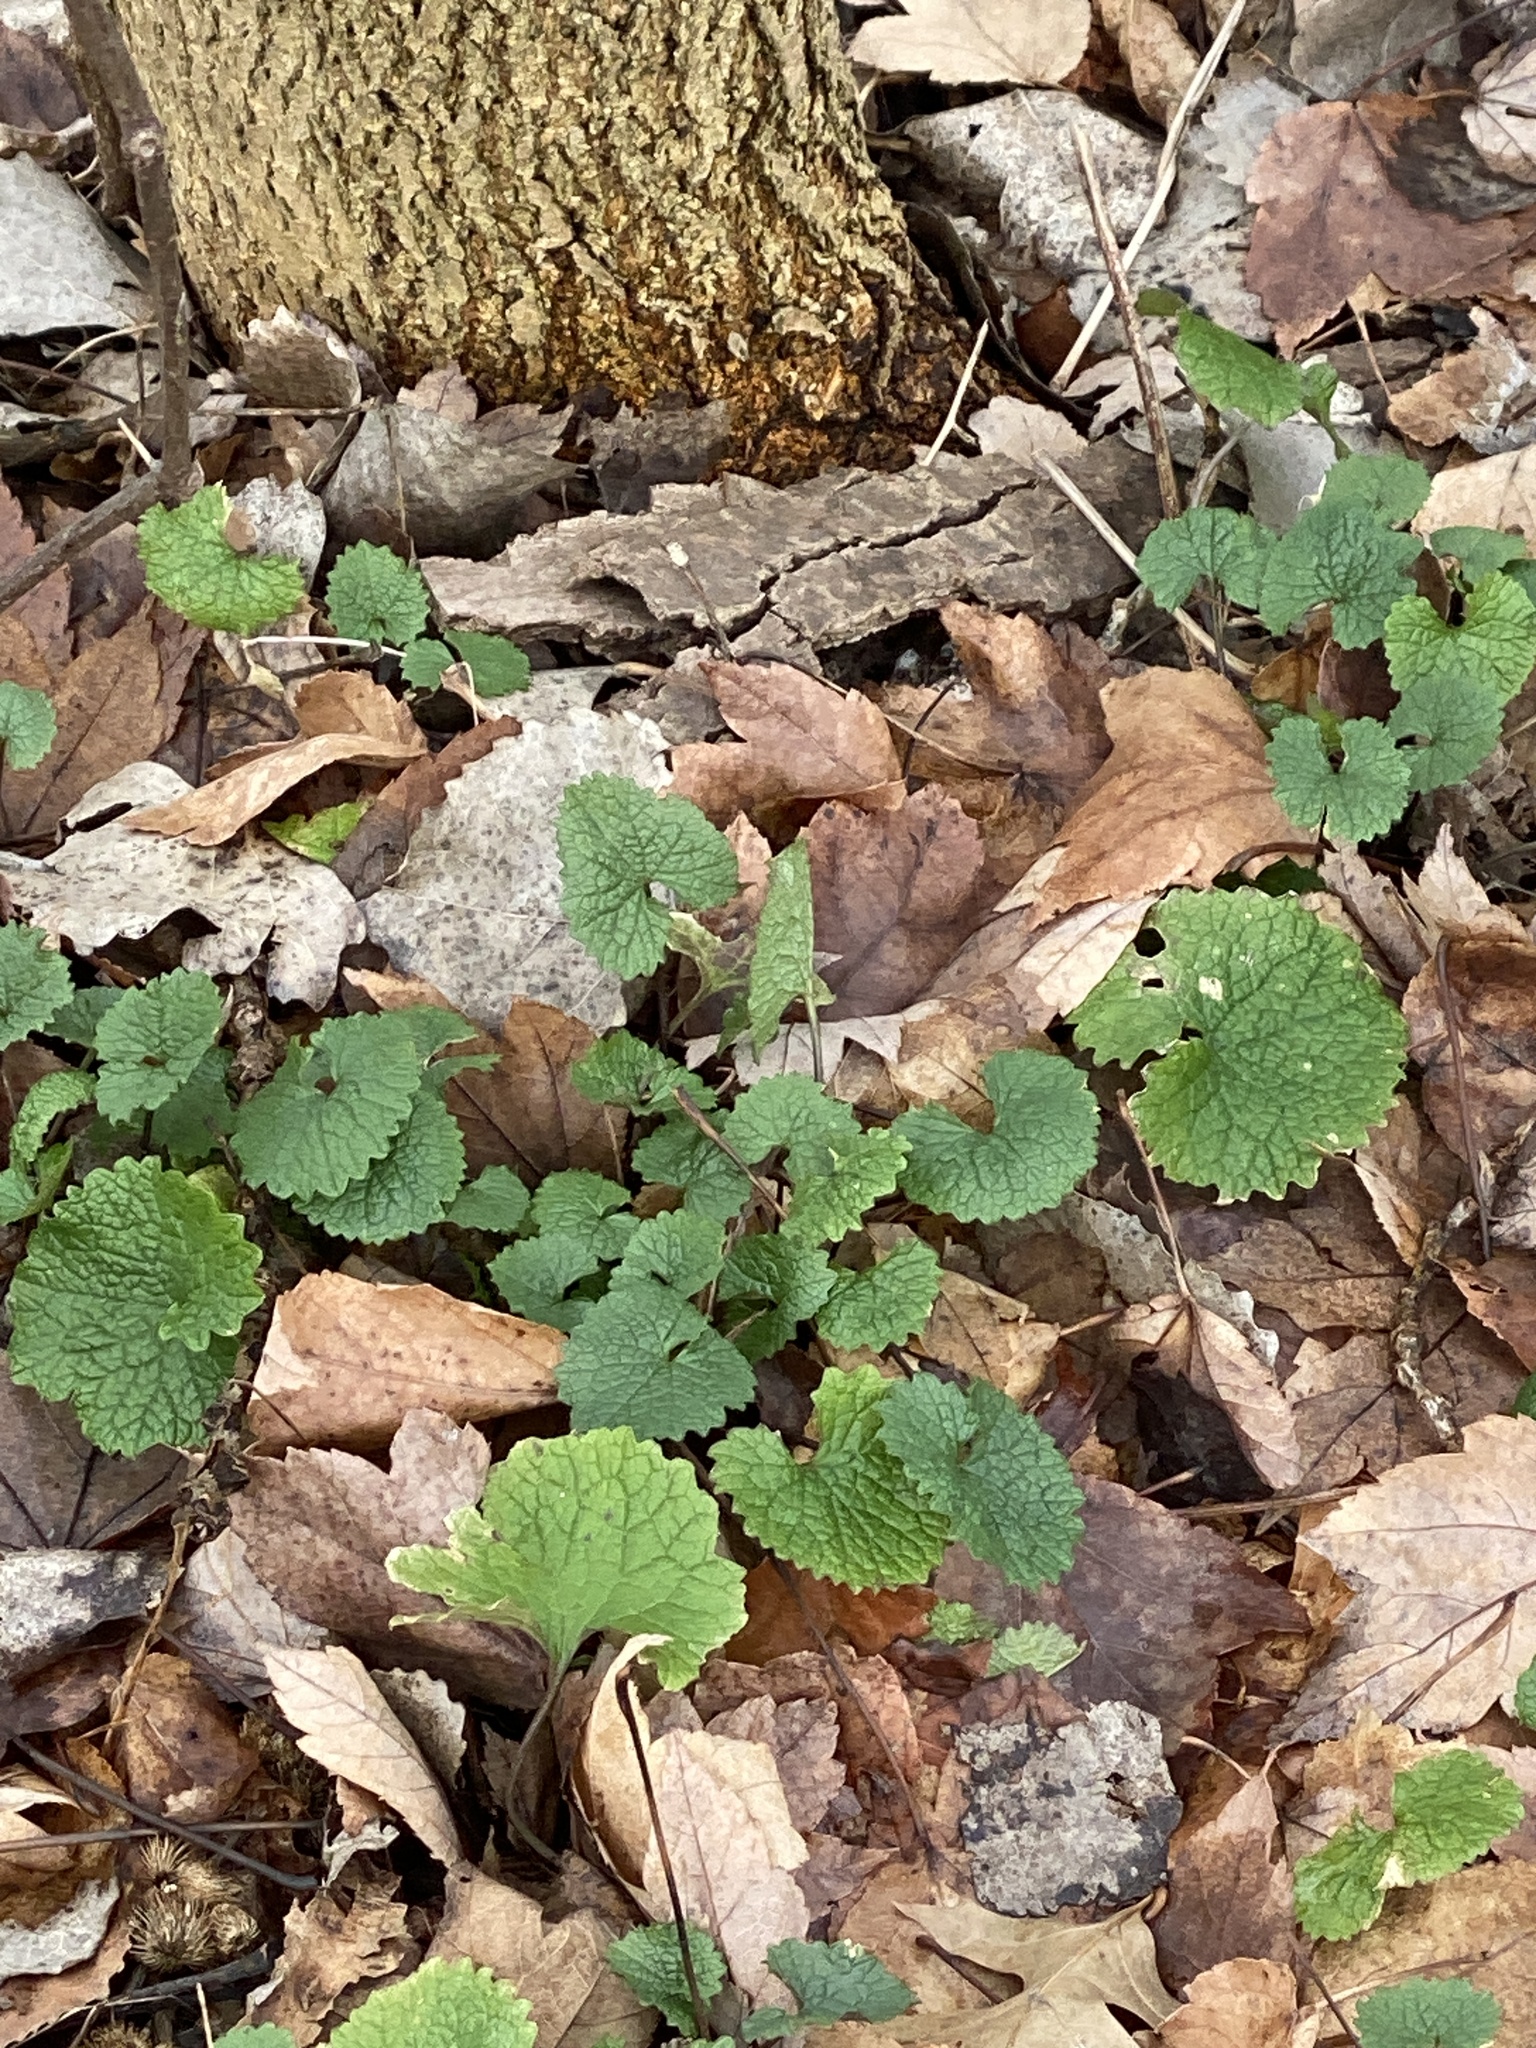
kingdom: Plantae
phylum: Tracheophyta
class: Magnoliopsida
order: Brassicales
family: Brassicaceae
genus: Alliaria
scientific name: Alliaria petiolata
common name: Garlic mustard
